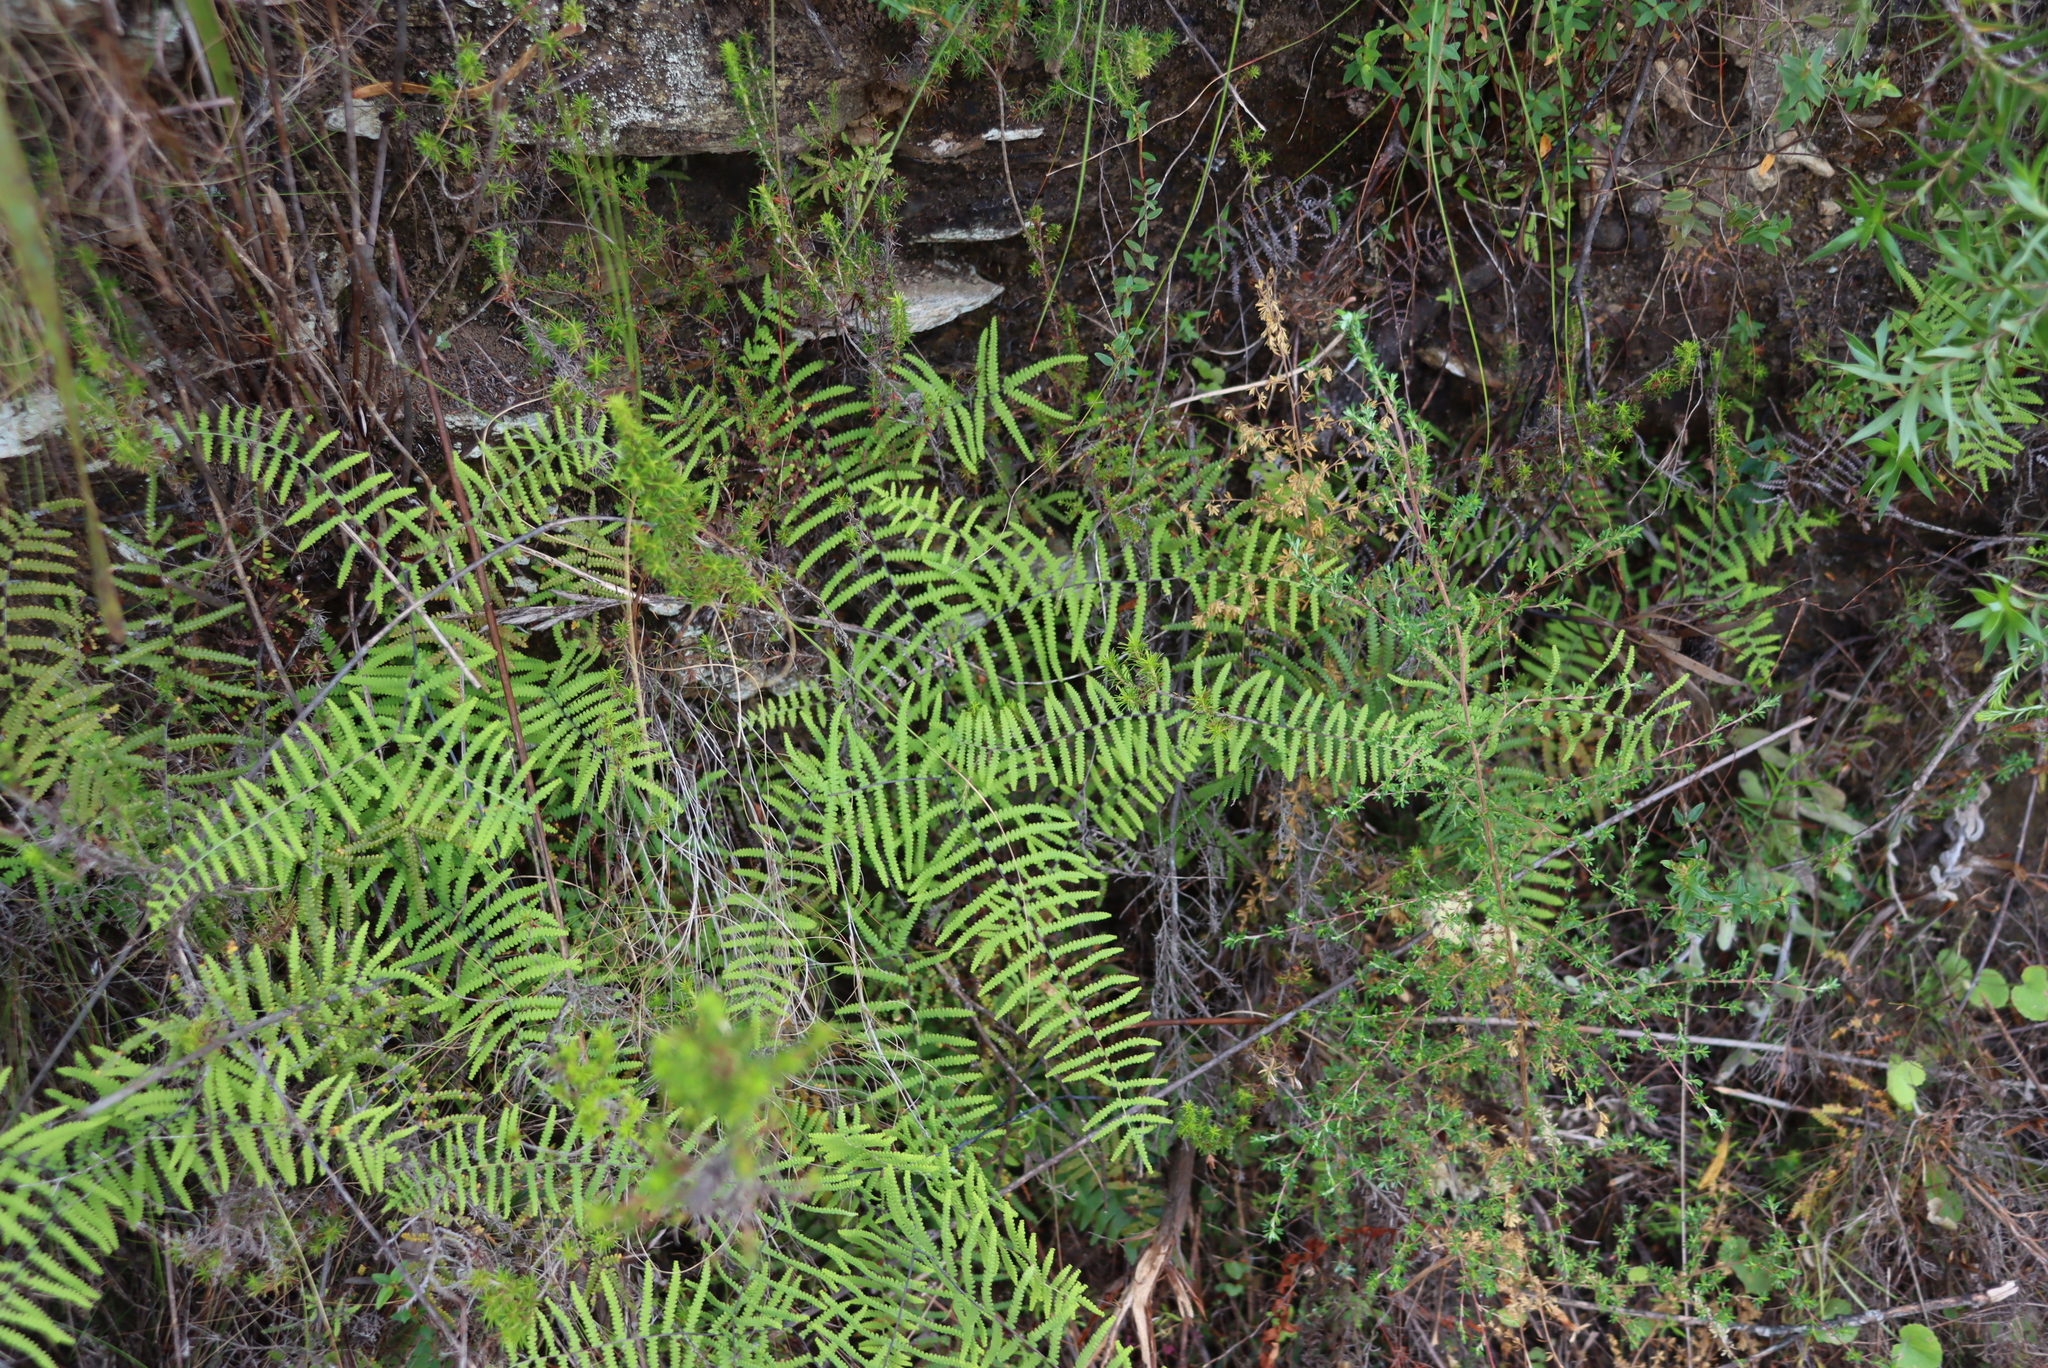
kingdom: Plantae
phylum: Tracheophyta
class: Polypodiopsida
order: Gleicheniales
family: Gleicheniaceae
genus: Gleichenia
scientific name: Gleichenia polypodioides
